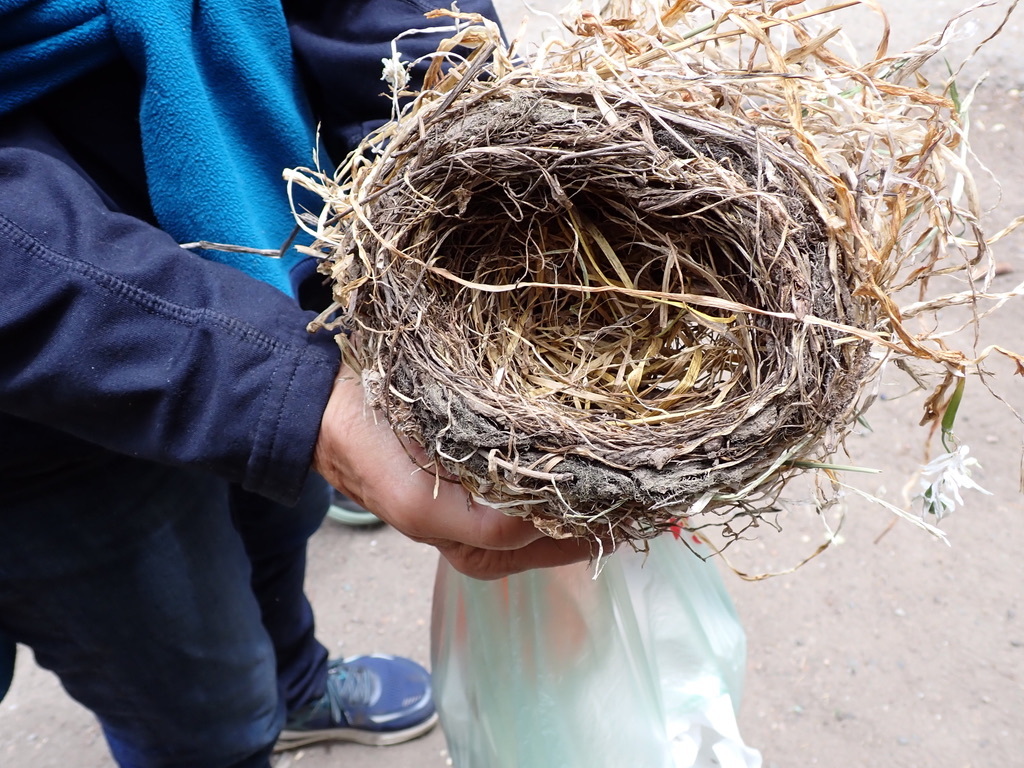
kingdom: Animalia
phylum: Chordata
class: Aves
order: Passeriformes
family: Turdidae
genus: Turdus
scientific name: Turdus migratorius
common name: American robin
